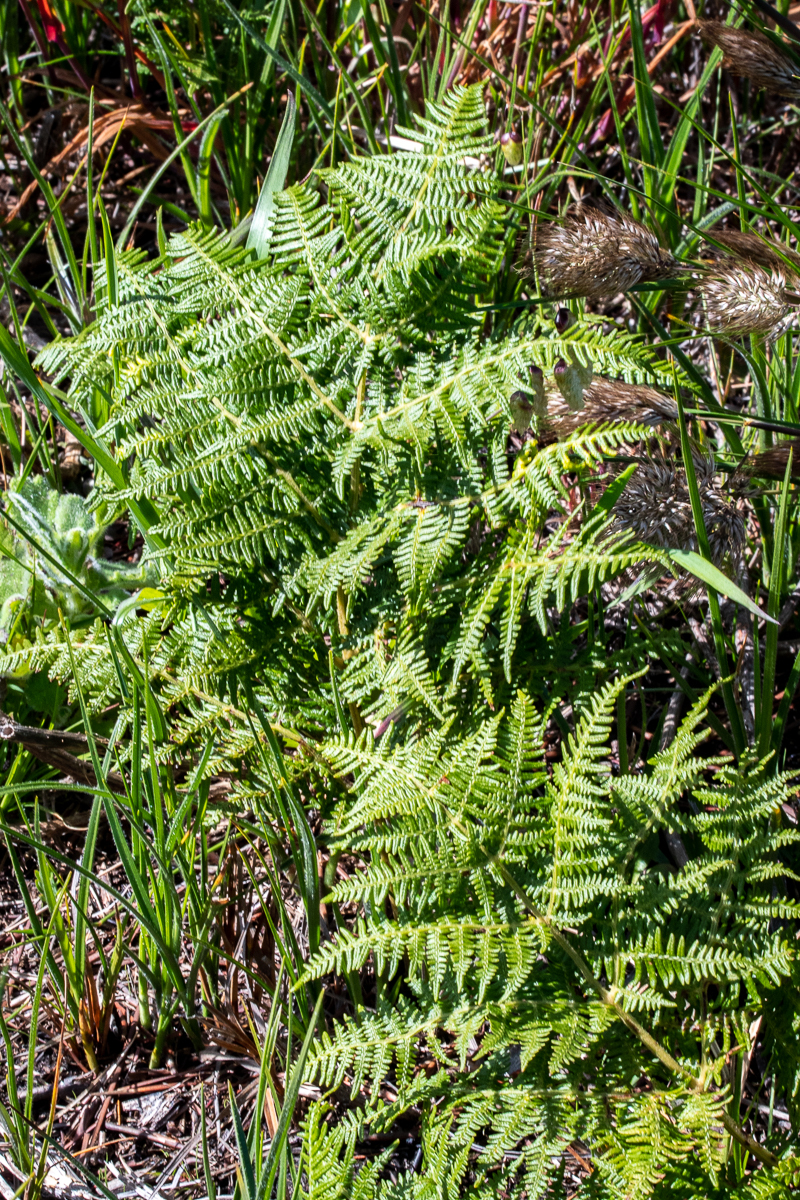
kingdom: Plantae
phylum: Tracheophyta
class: Polypodiopsida
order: Polypodiales
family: Dennstaedtiaceae
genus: Pteridium
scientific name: Pteridium aquilinum
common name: Bracken
